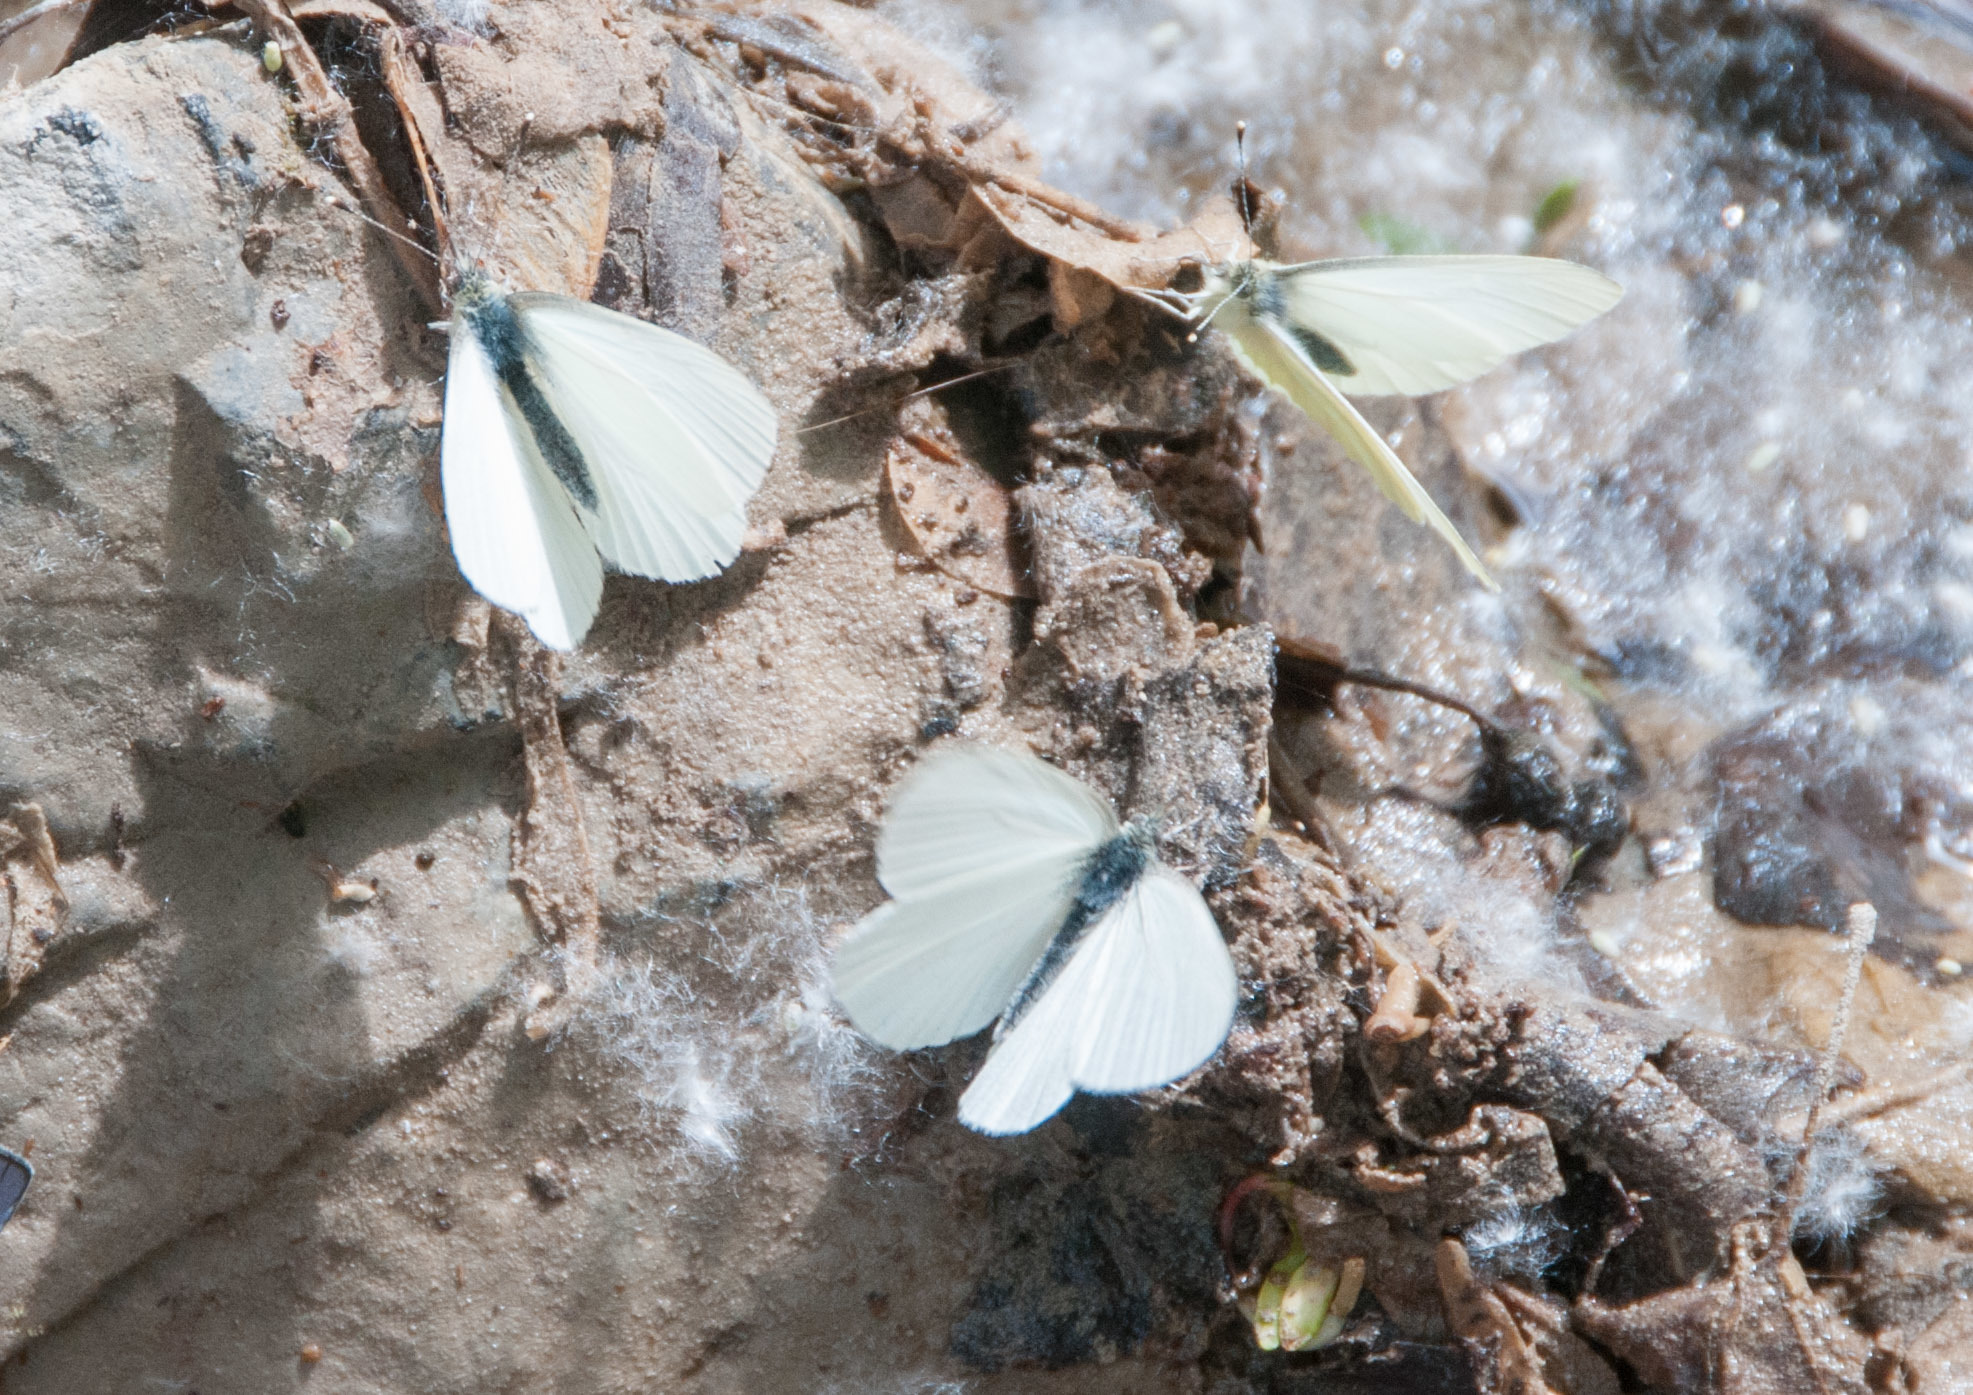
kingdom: Animalia
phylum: Arthropoda
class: Insecta
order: Lepidoptera
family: Pieridae
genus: Pieris
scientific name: Pieris marginalis
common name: Margined white
